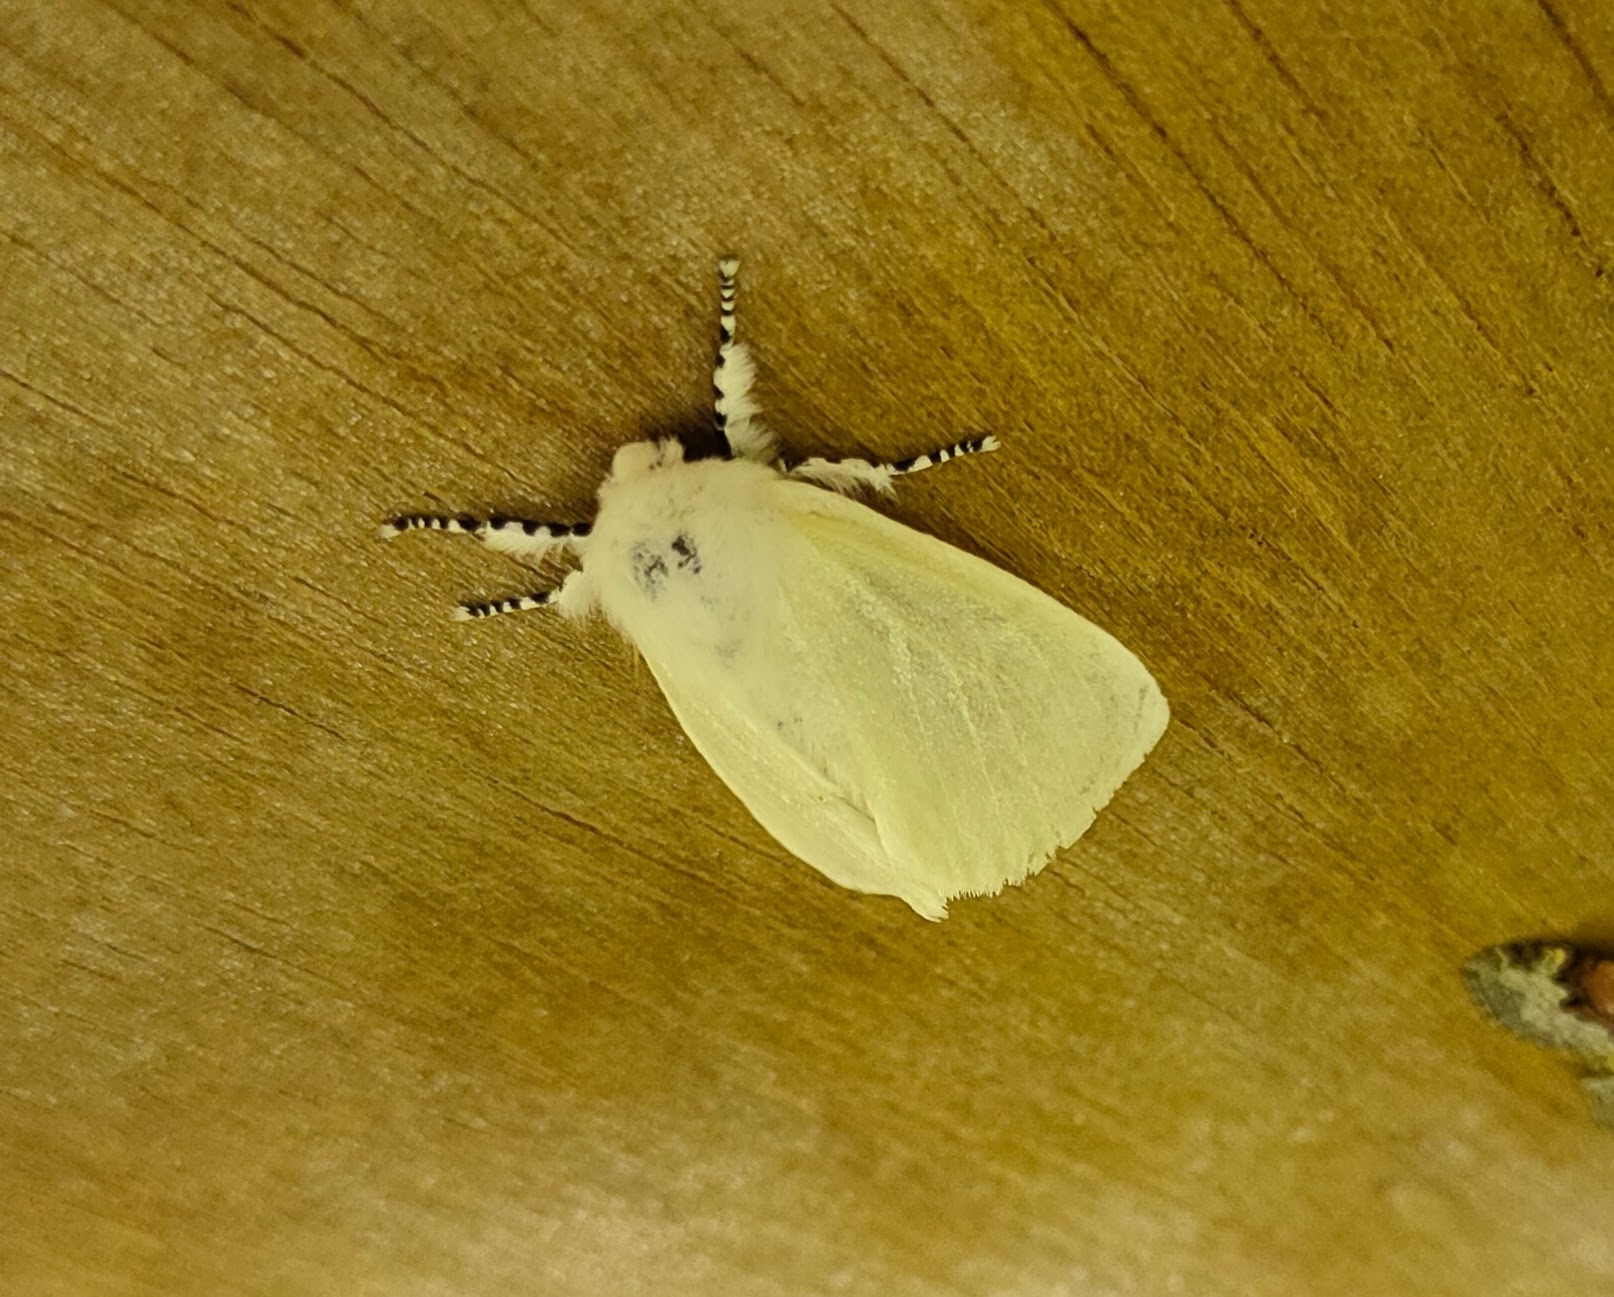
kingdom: Animalia
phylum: Arthropoda
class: Insecta
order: Lepidoptera
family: Erebidae
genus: Leucoma
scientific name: Leucoma salicis
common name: White satin moth
